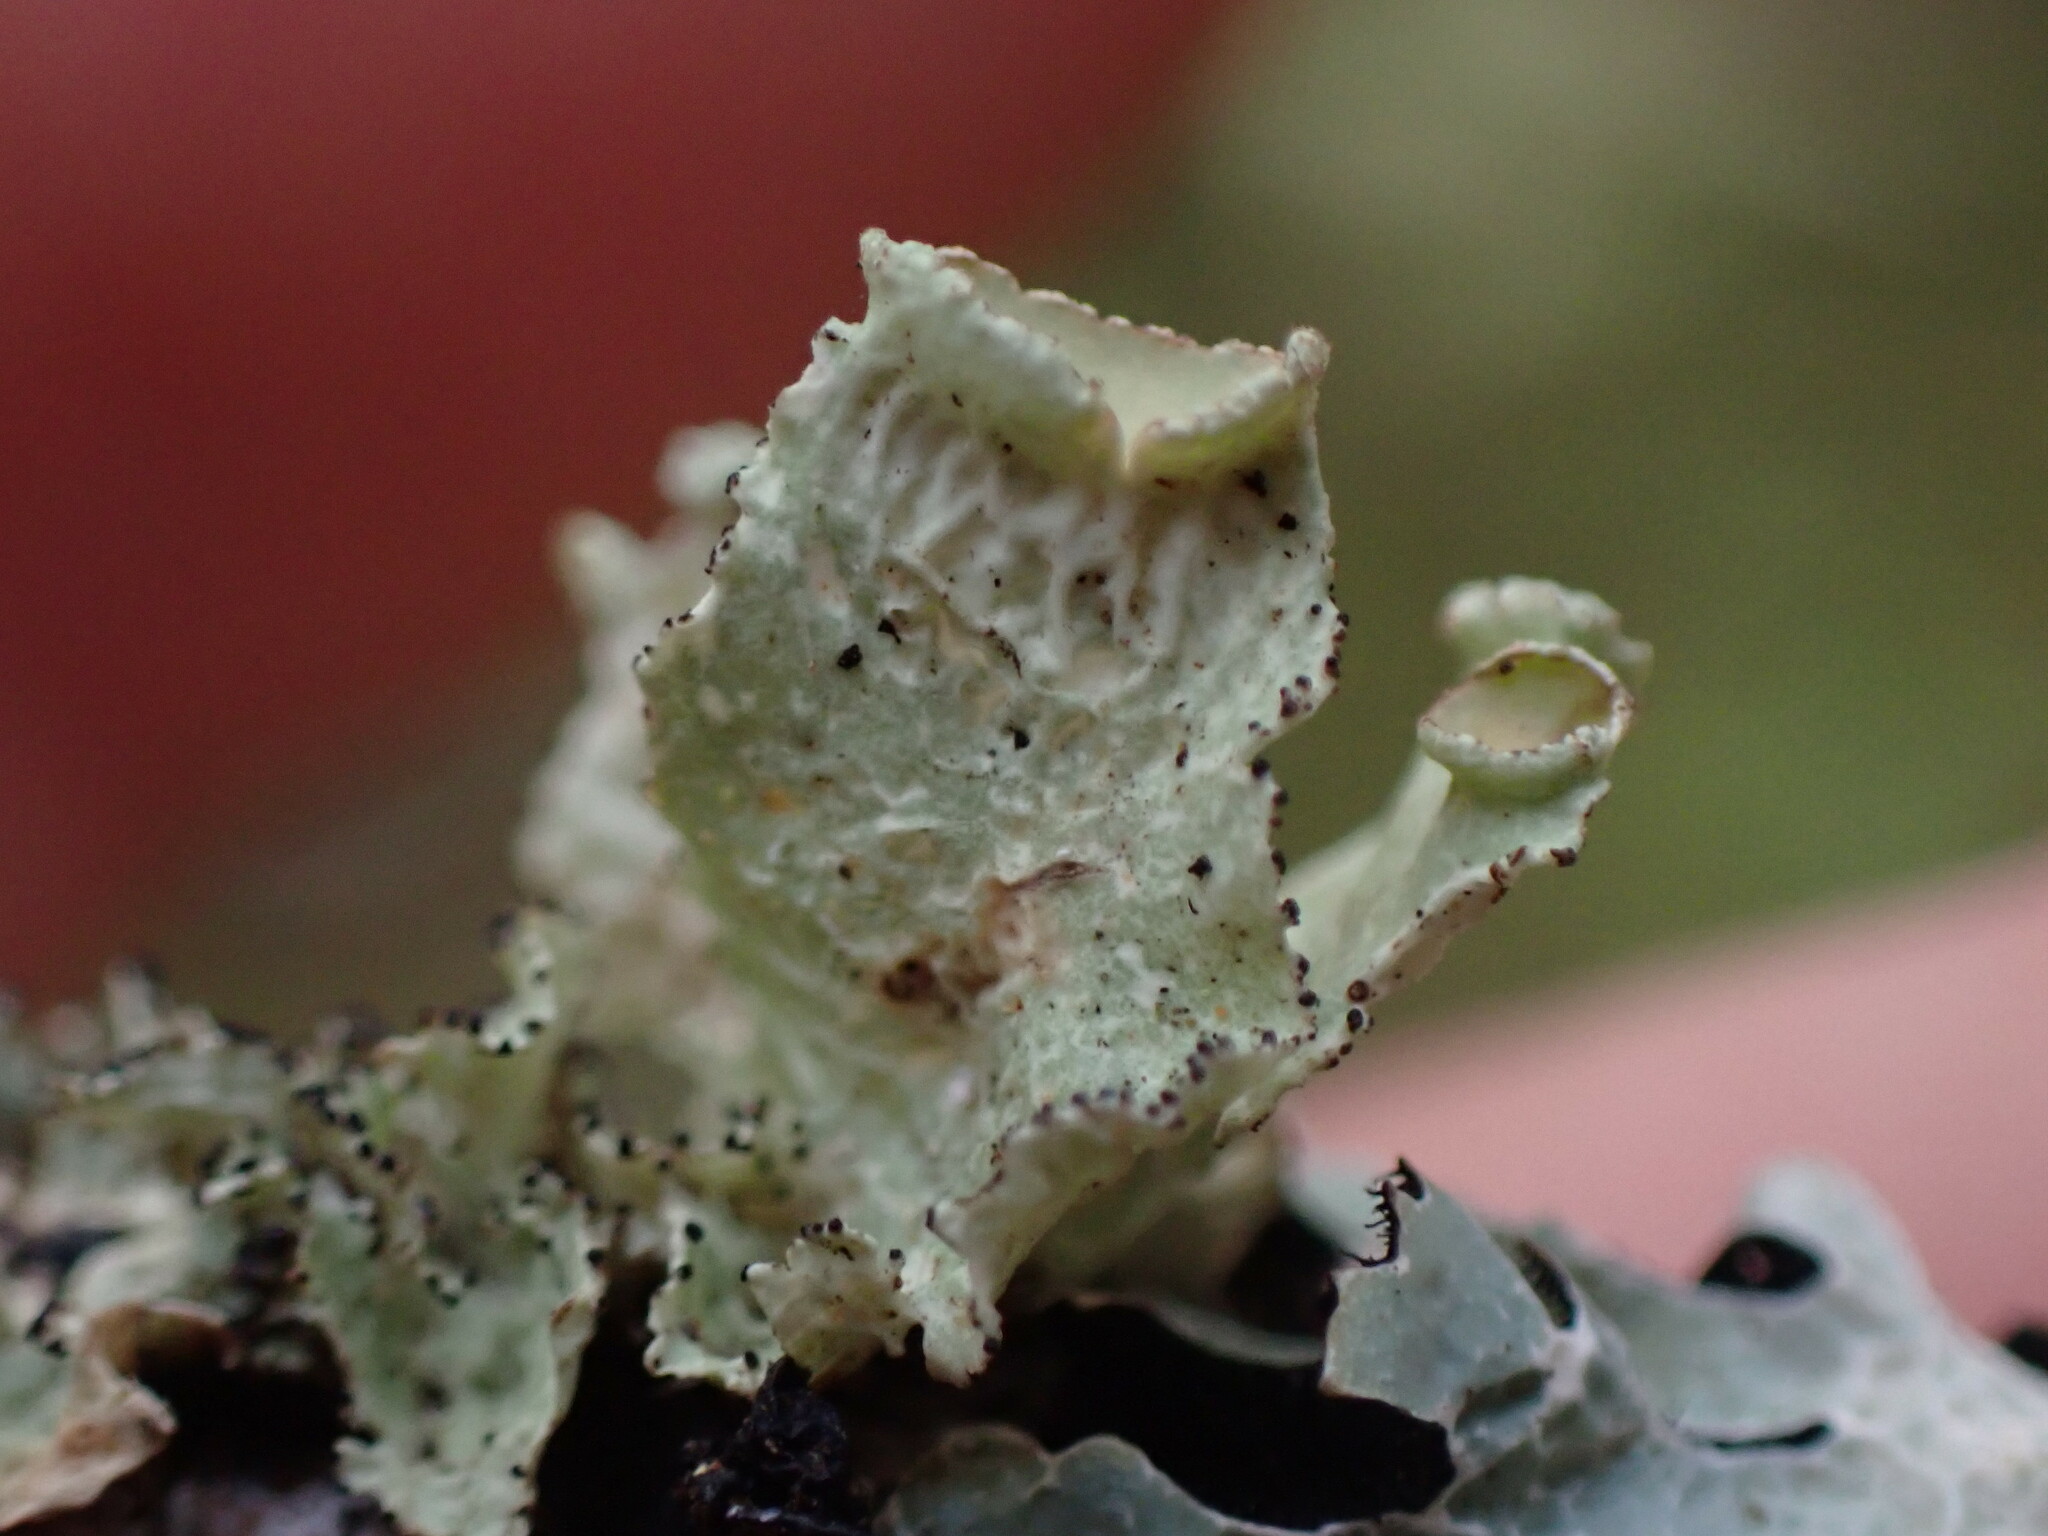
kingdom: Fungi
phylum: Ascomycota
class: Lecanoromycetes
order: Lecanorales
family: Parmeliaceae
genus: Ahtiana
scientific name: Ahtiana pallidula
